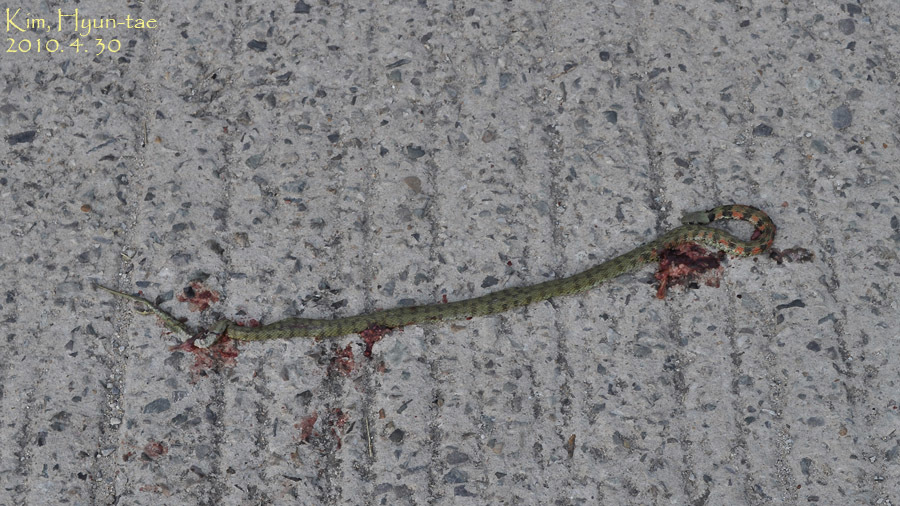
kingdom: Animalia
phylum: Chordata
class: Squamata
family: Colubridae
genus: Rhabdophis
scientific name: Rhabdophis tigrinus
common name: Tiger keelback
